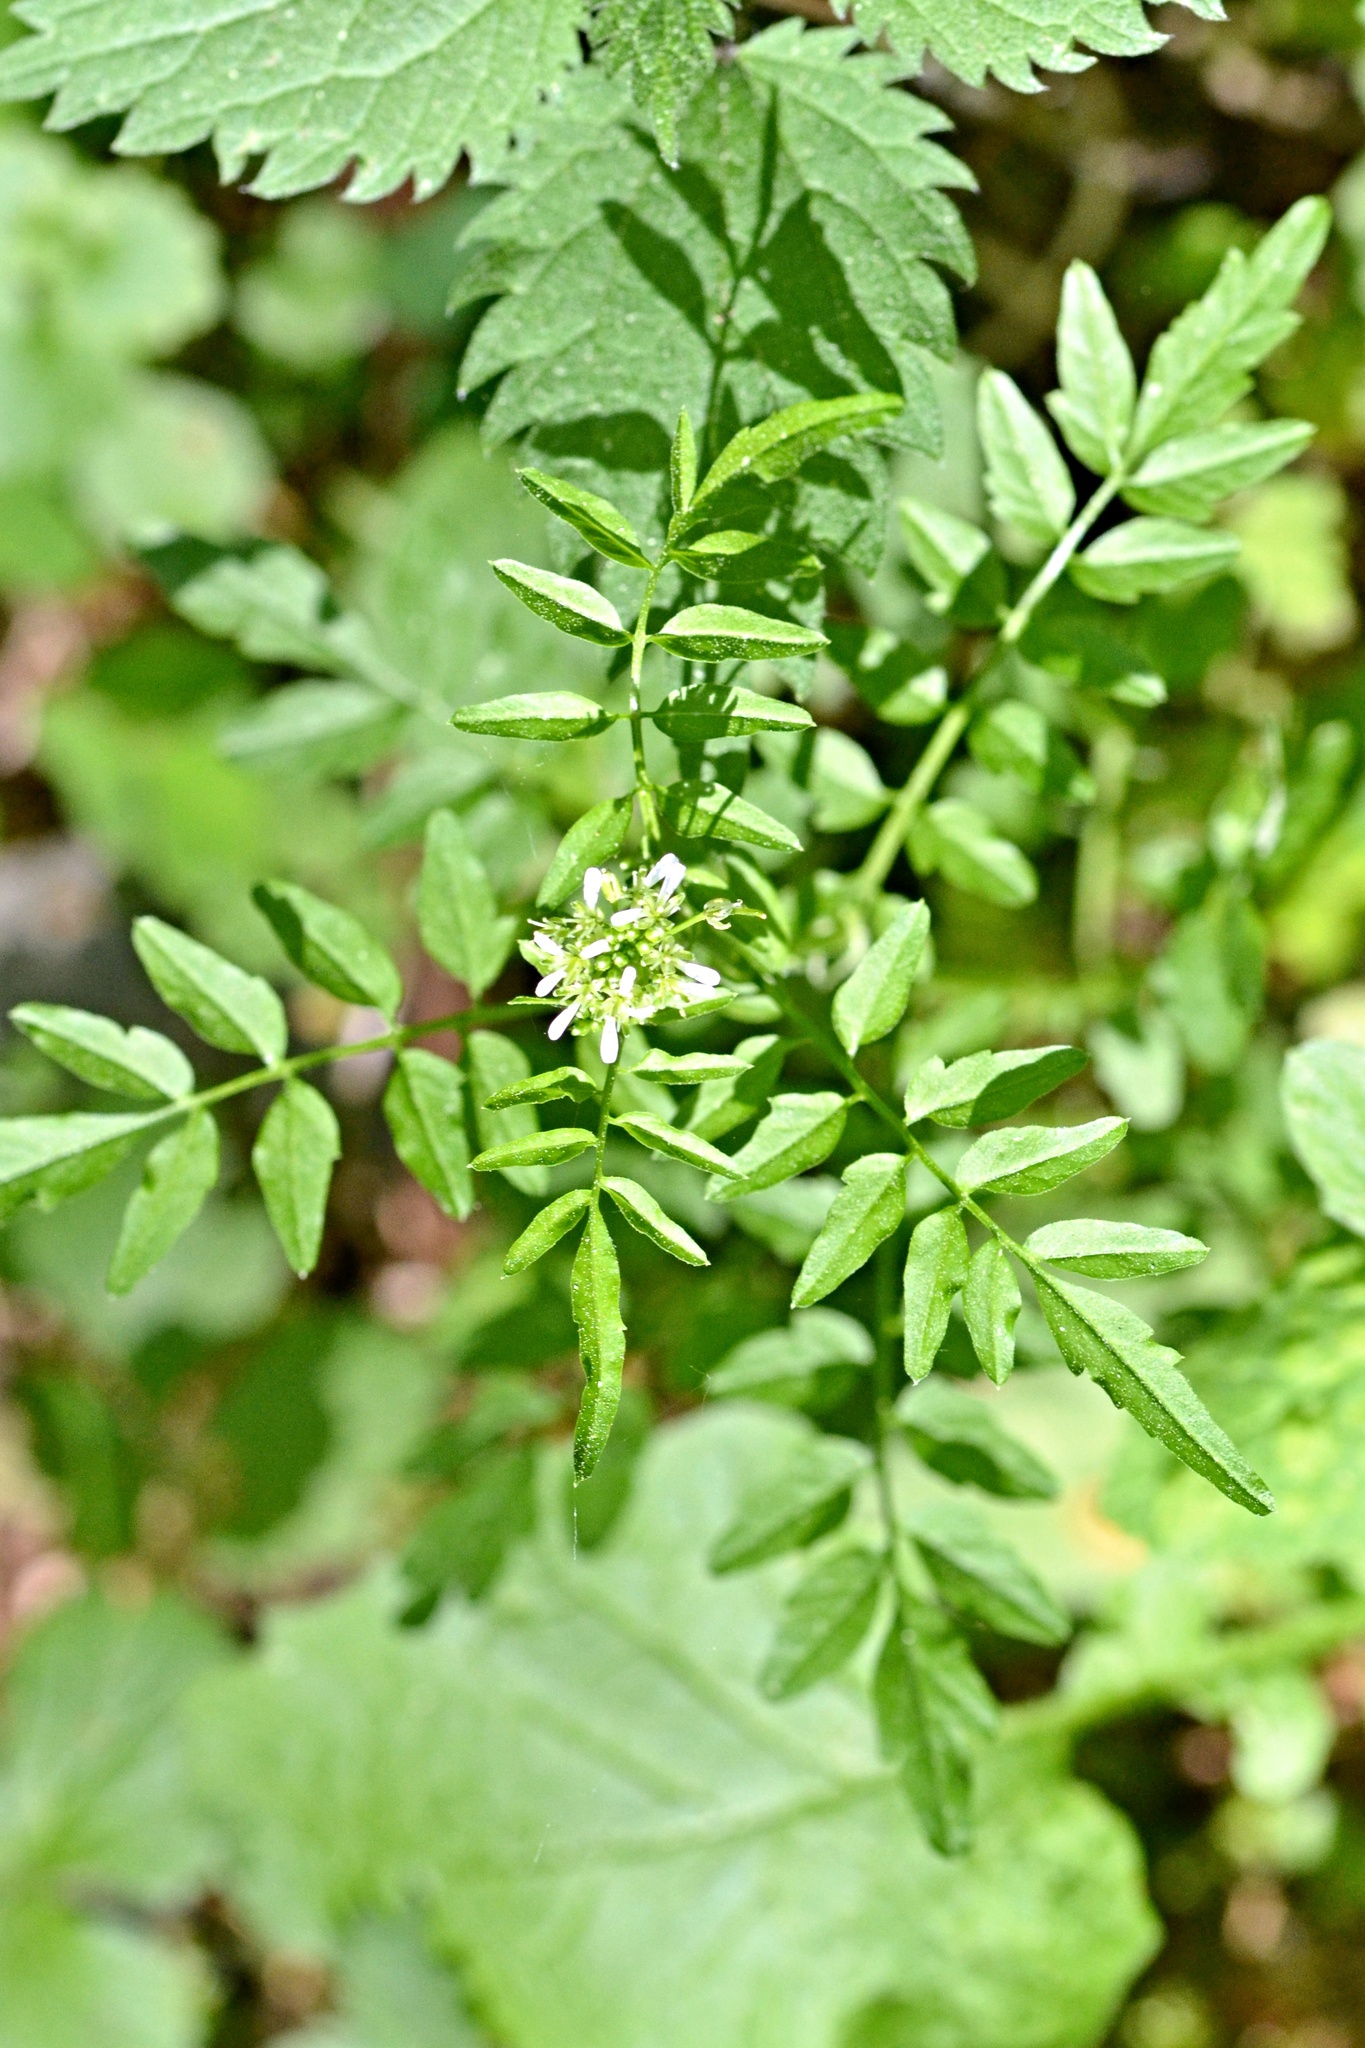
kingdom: Plantae
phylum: Tracheophyta
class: Magnoliopsida
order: Brassicales
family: Brassicaceae
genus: Cardamine
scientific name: Cardamine impatiens
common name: Narrow-leaved bitter-cress
